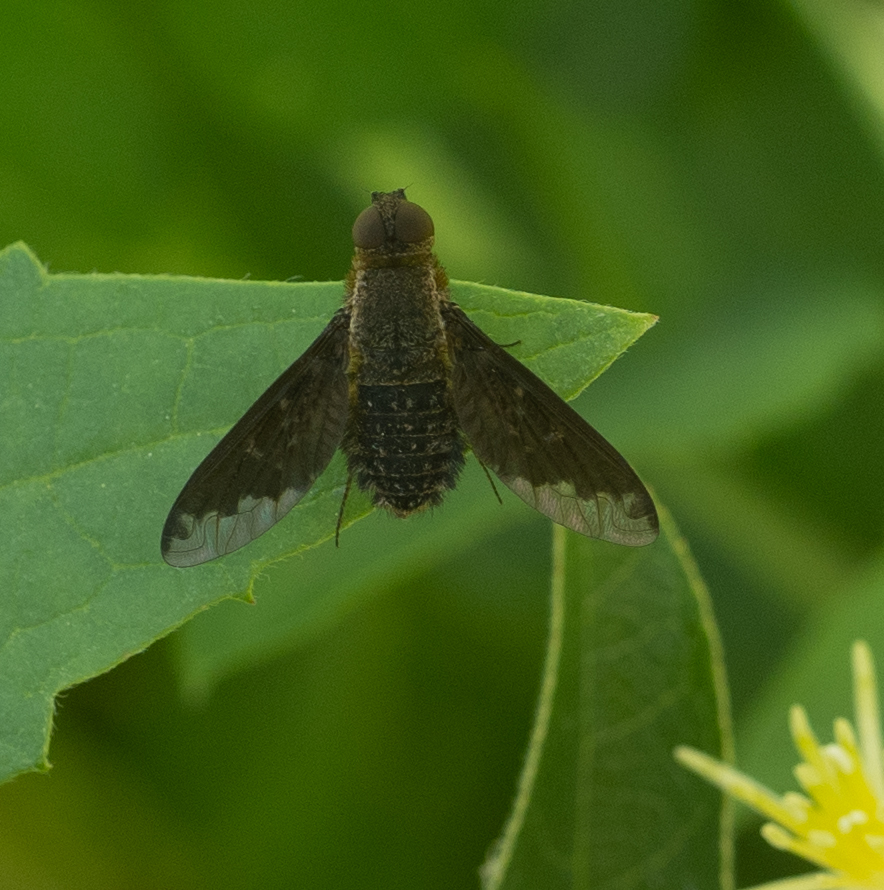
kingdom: Animalia
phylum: Arthropoda
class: Insecta
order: Diptera
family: Bombyliidae
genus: Hemipenthes
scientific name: Hemipenthes sinuosus
